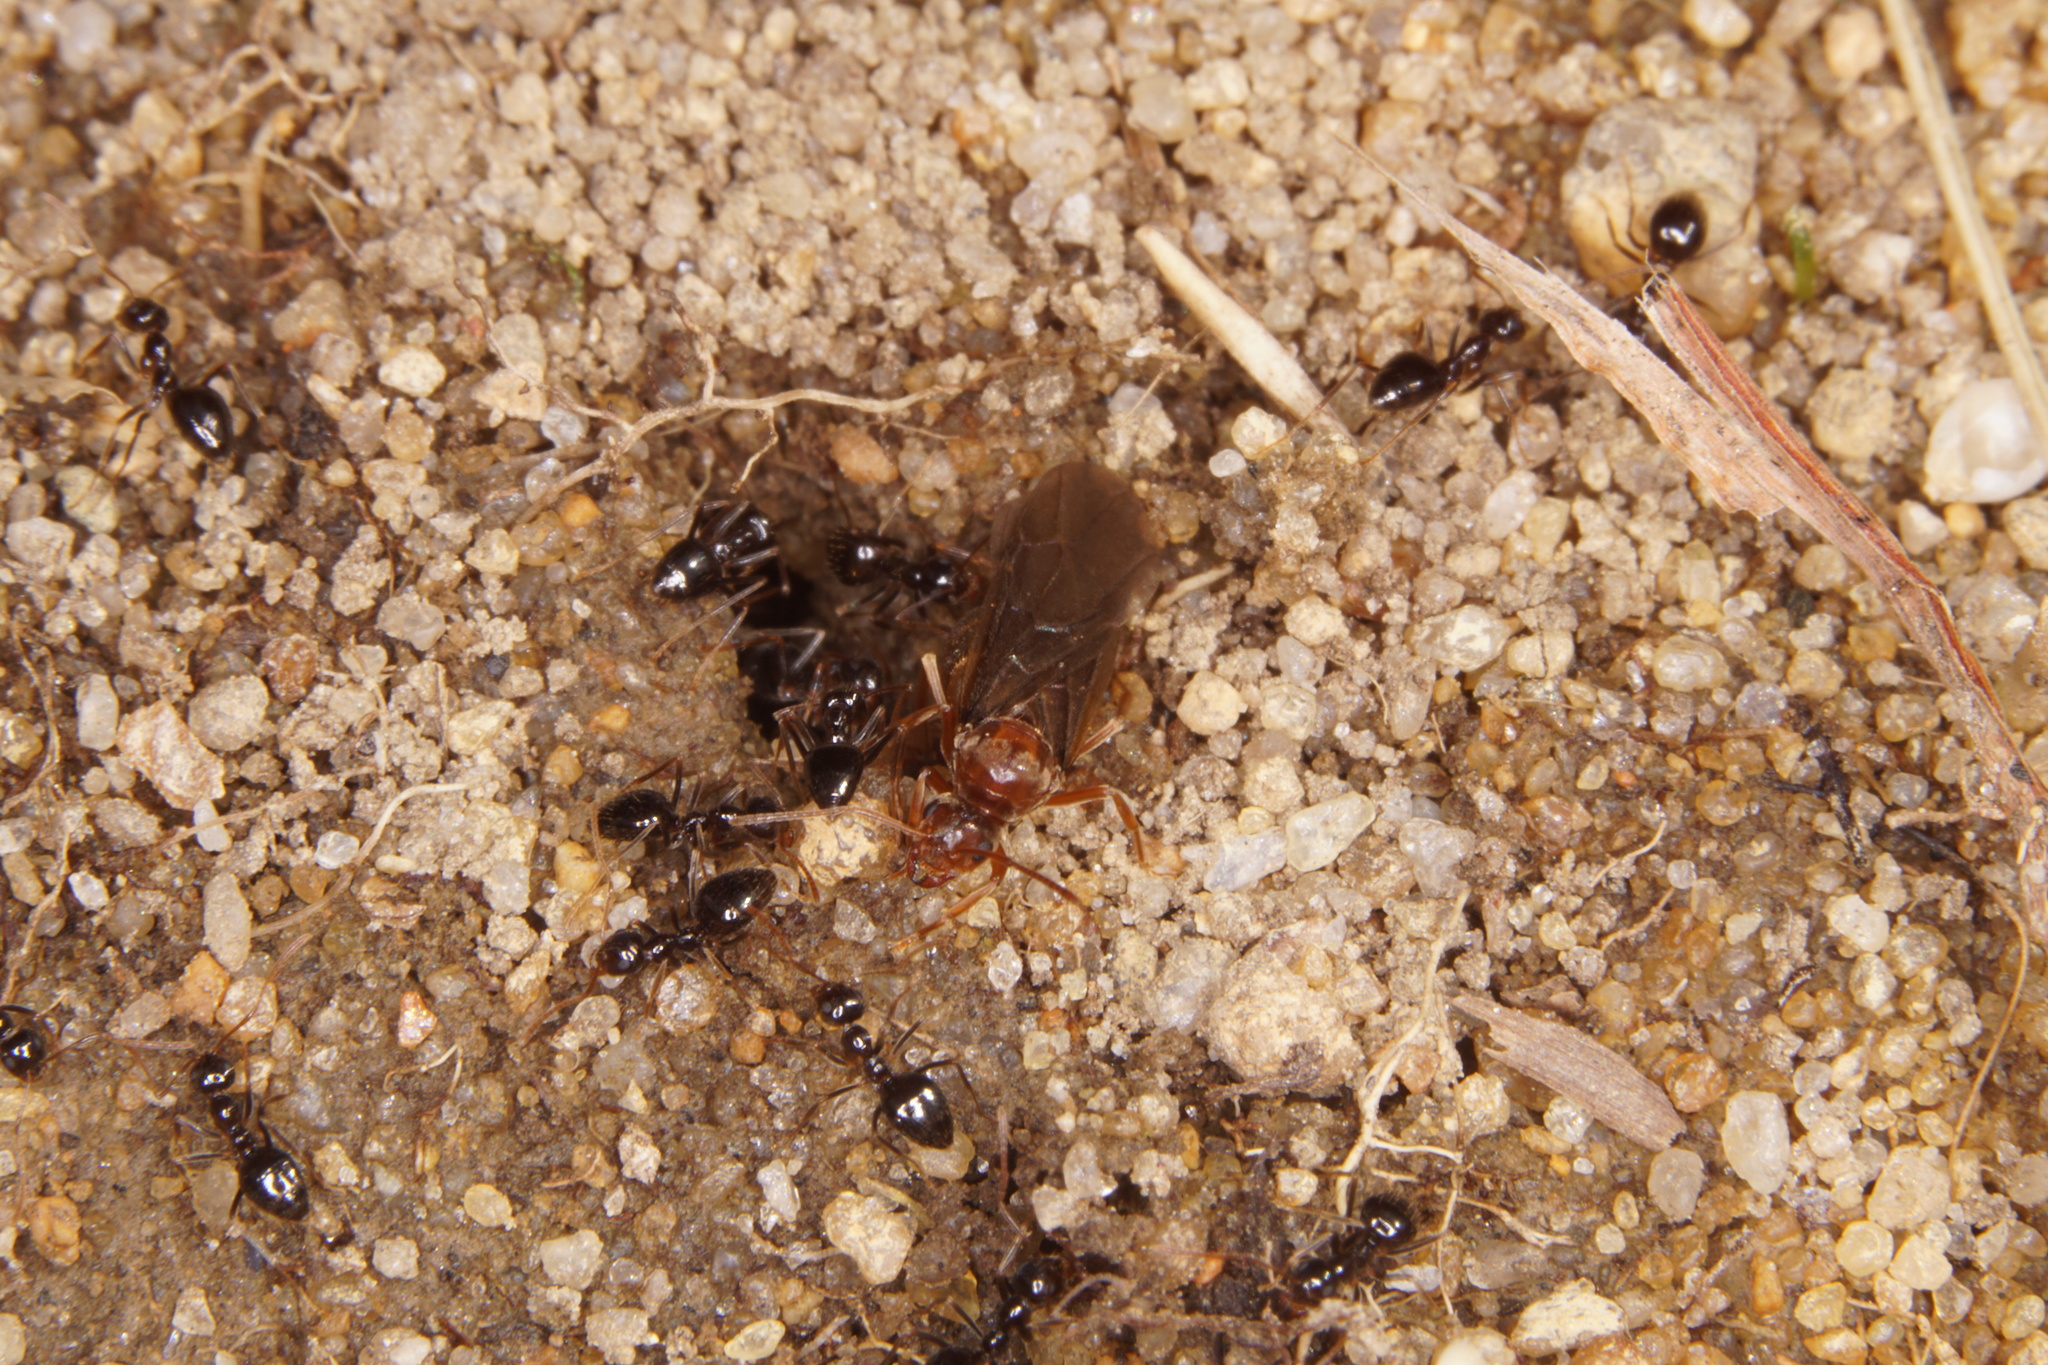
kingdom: Animalia
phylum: Arthropoda
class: Insecta
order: Hymenoptera
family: Formicidae
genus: Prenolepis
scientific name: Prenolepis imparis
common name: Small honey ant
